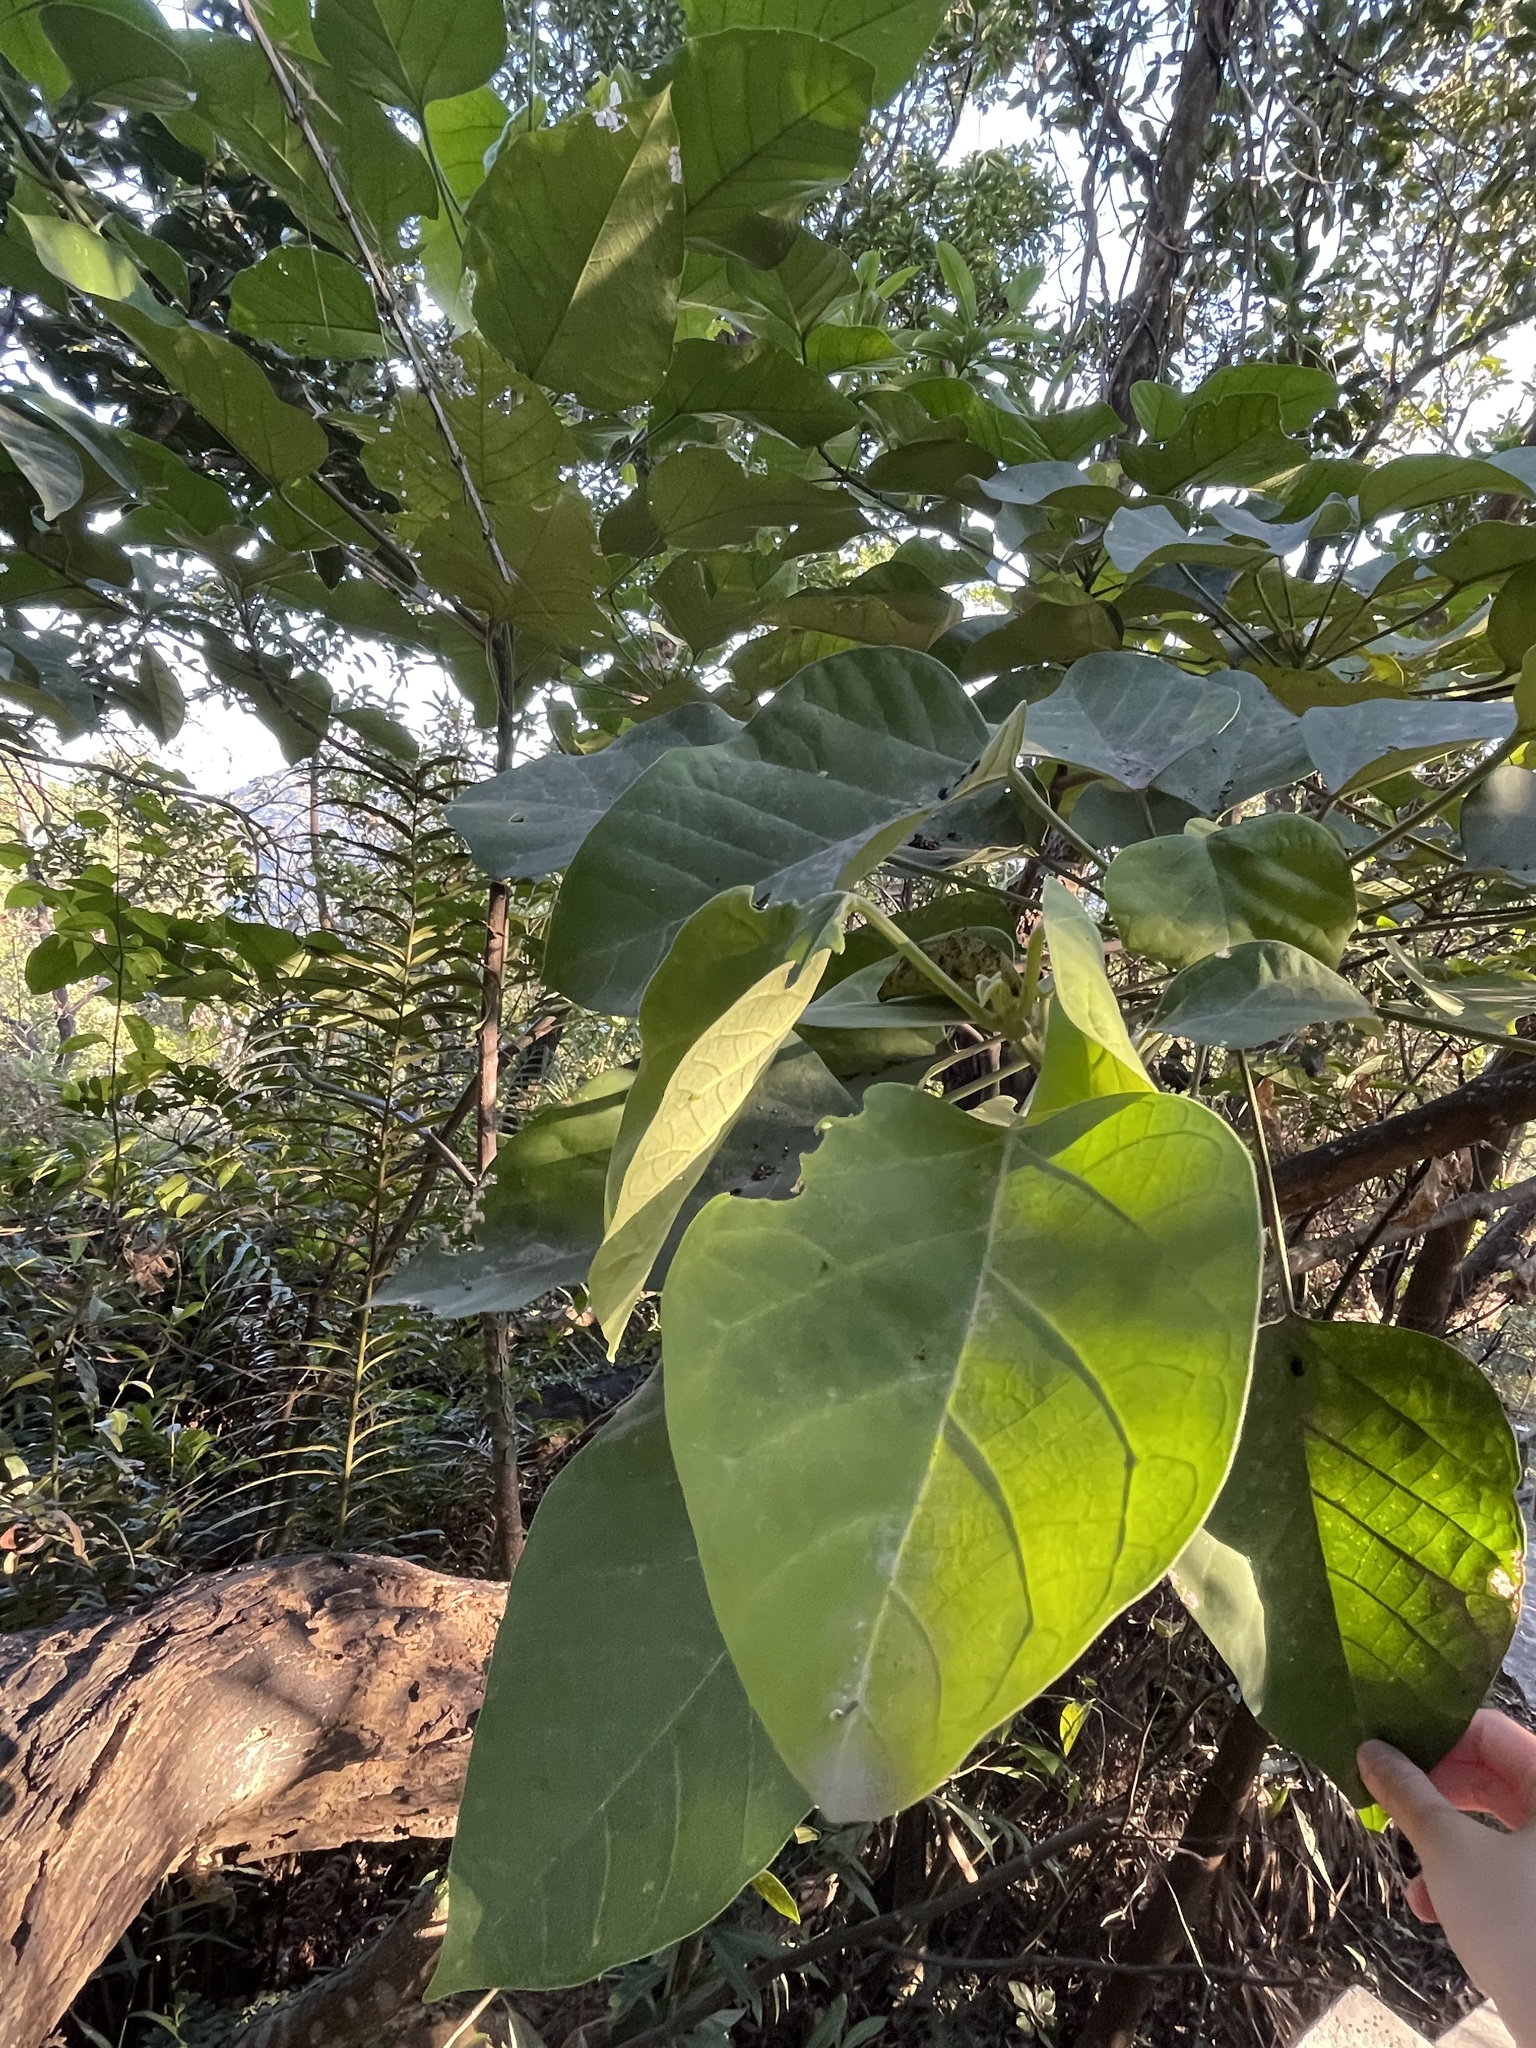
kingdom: Plantae
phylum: Tracheophyta
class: Magnoliopsida
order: Malpighiales
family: Euphorbiaceae
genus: Endospermum
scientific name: Endospermum chinense
